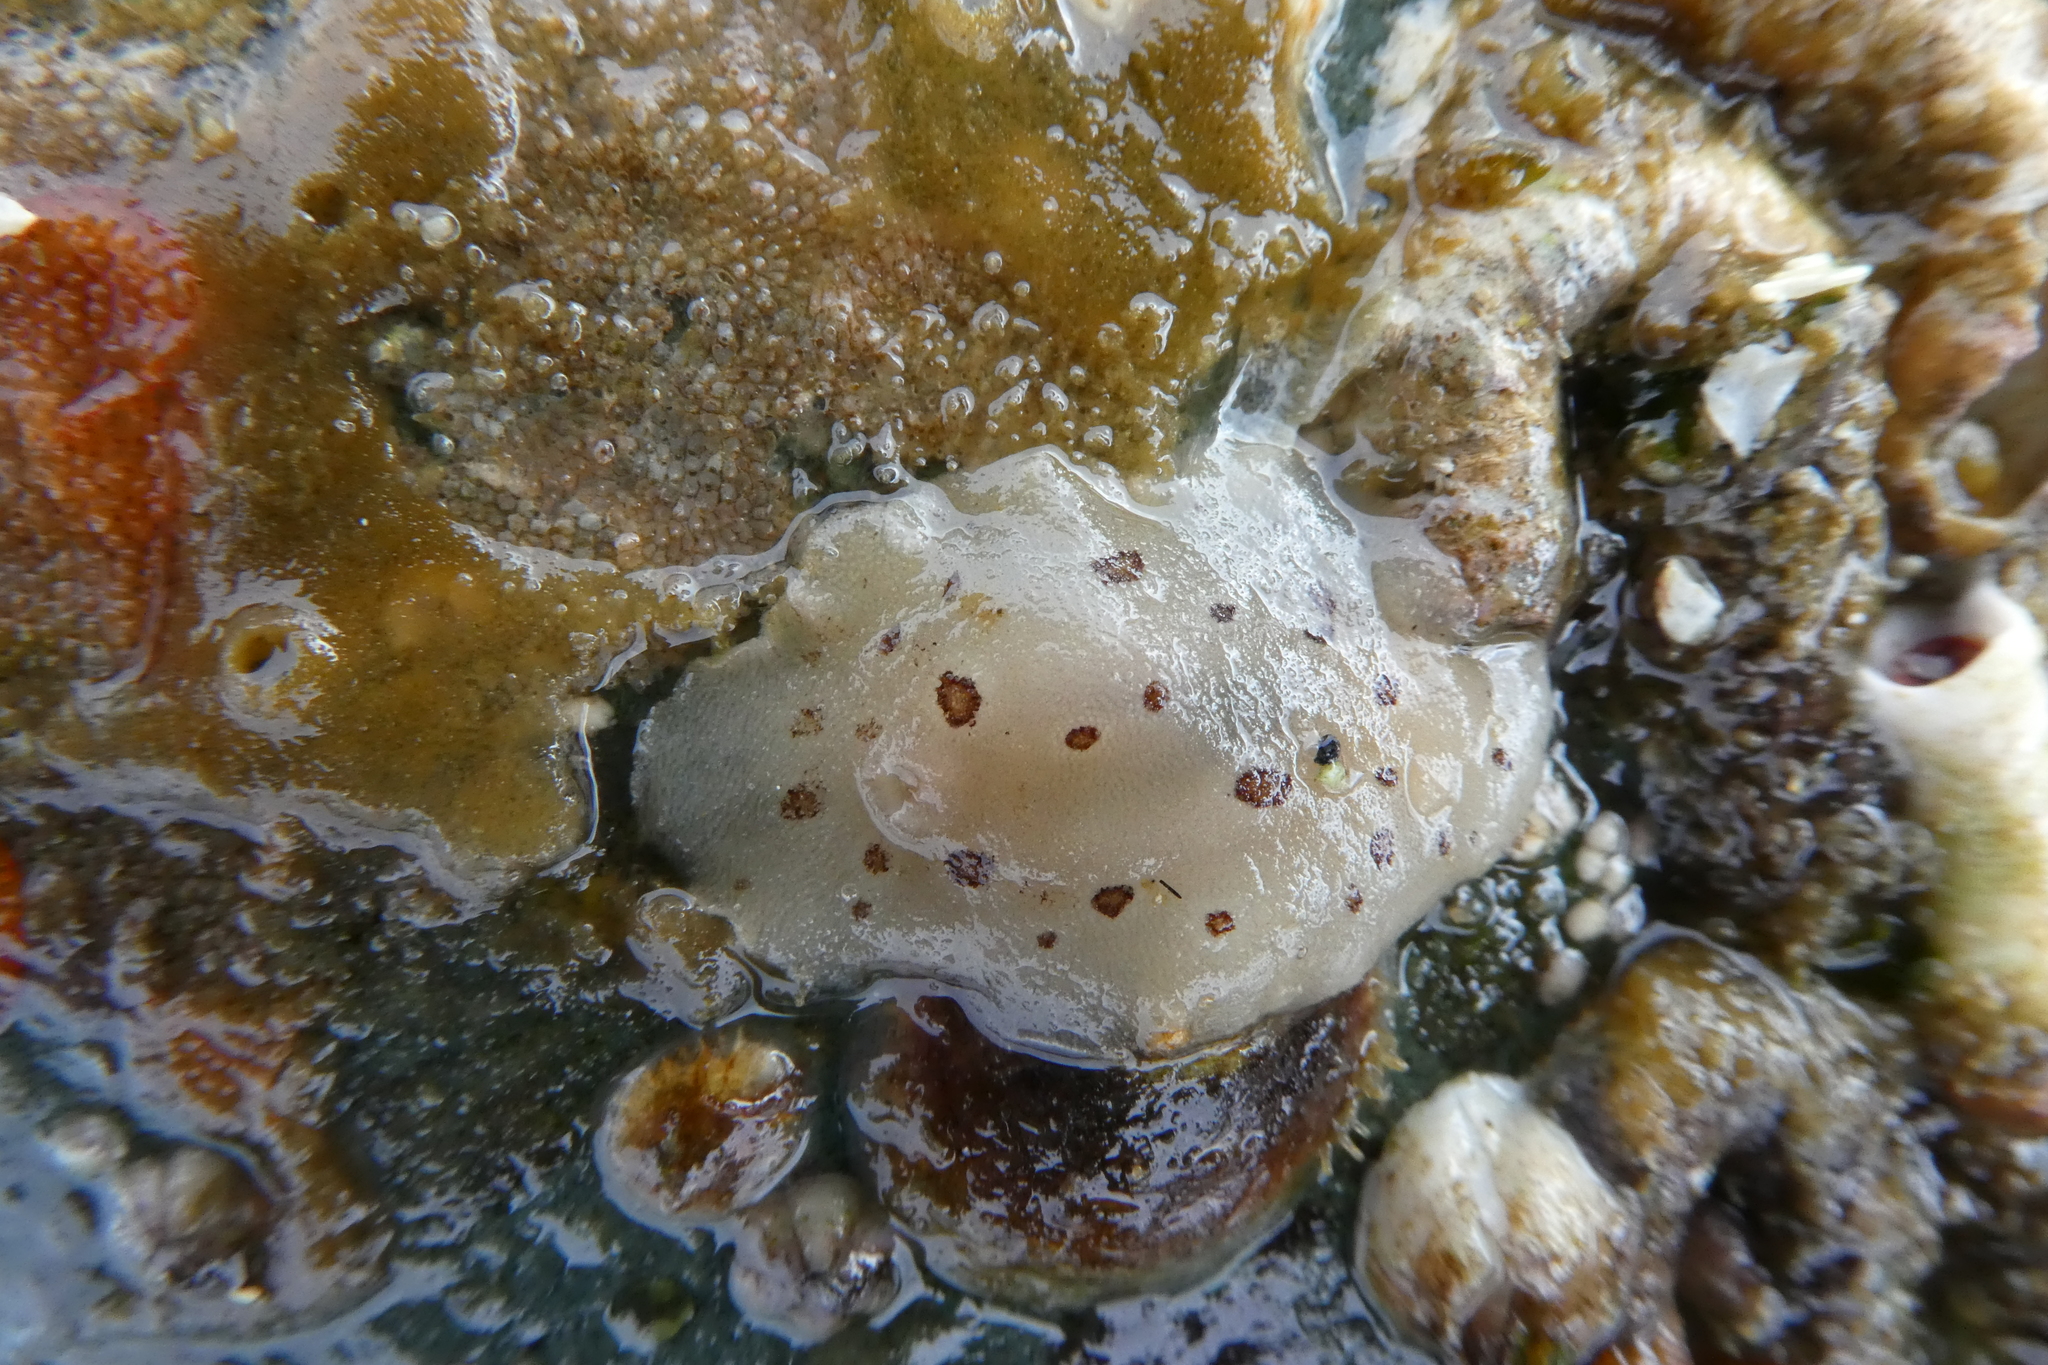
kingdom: Animalia
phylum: Mollusca
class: Gastropoda
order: Nudibranchia
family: Discodorididae
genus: Diaulula
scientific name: Diaulula odonoghuei
